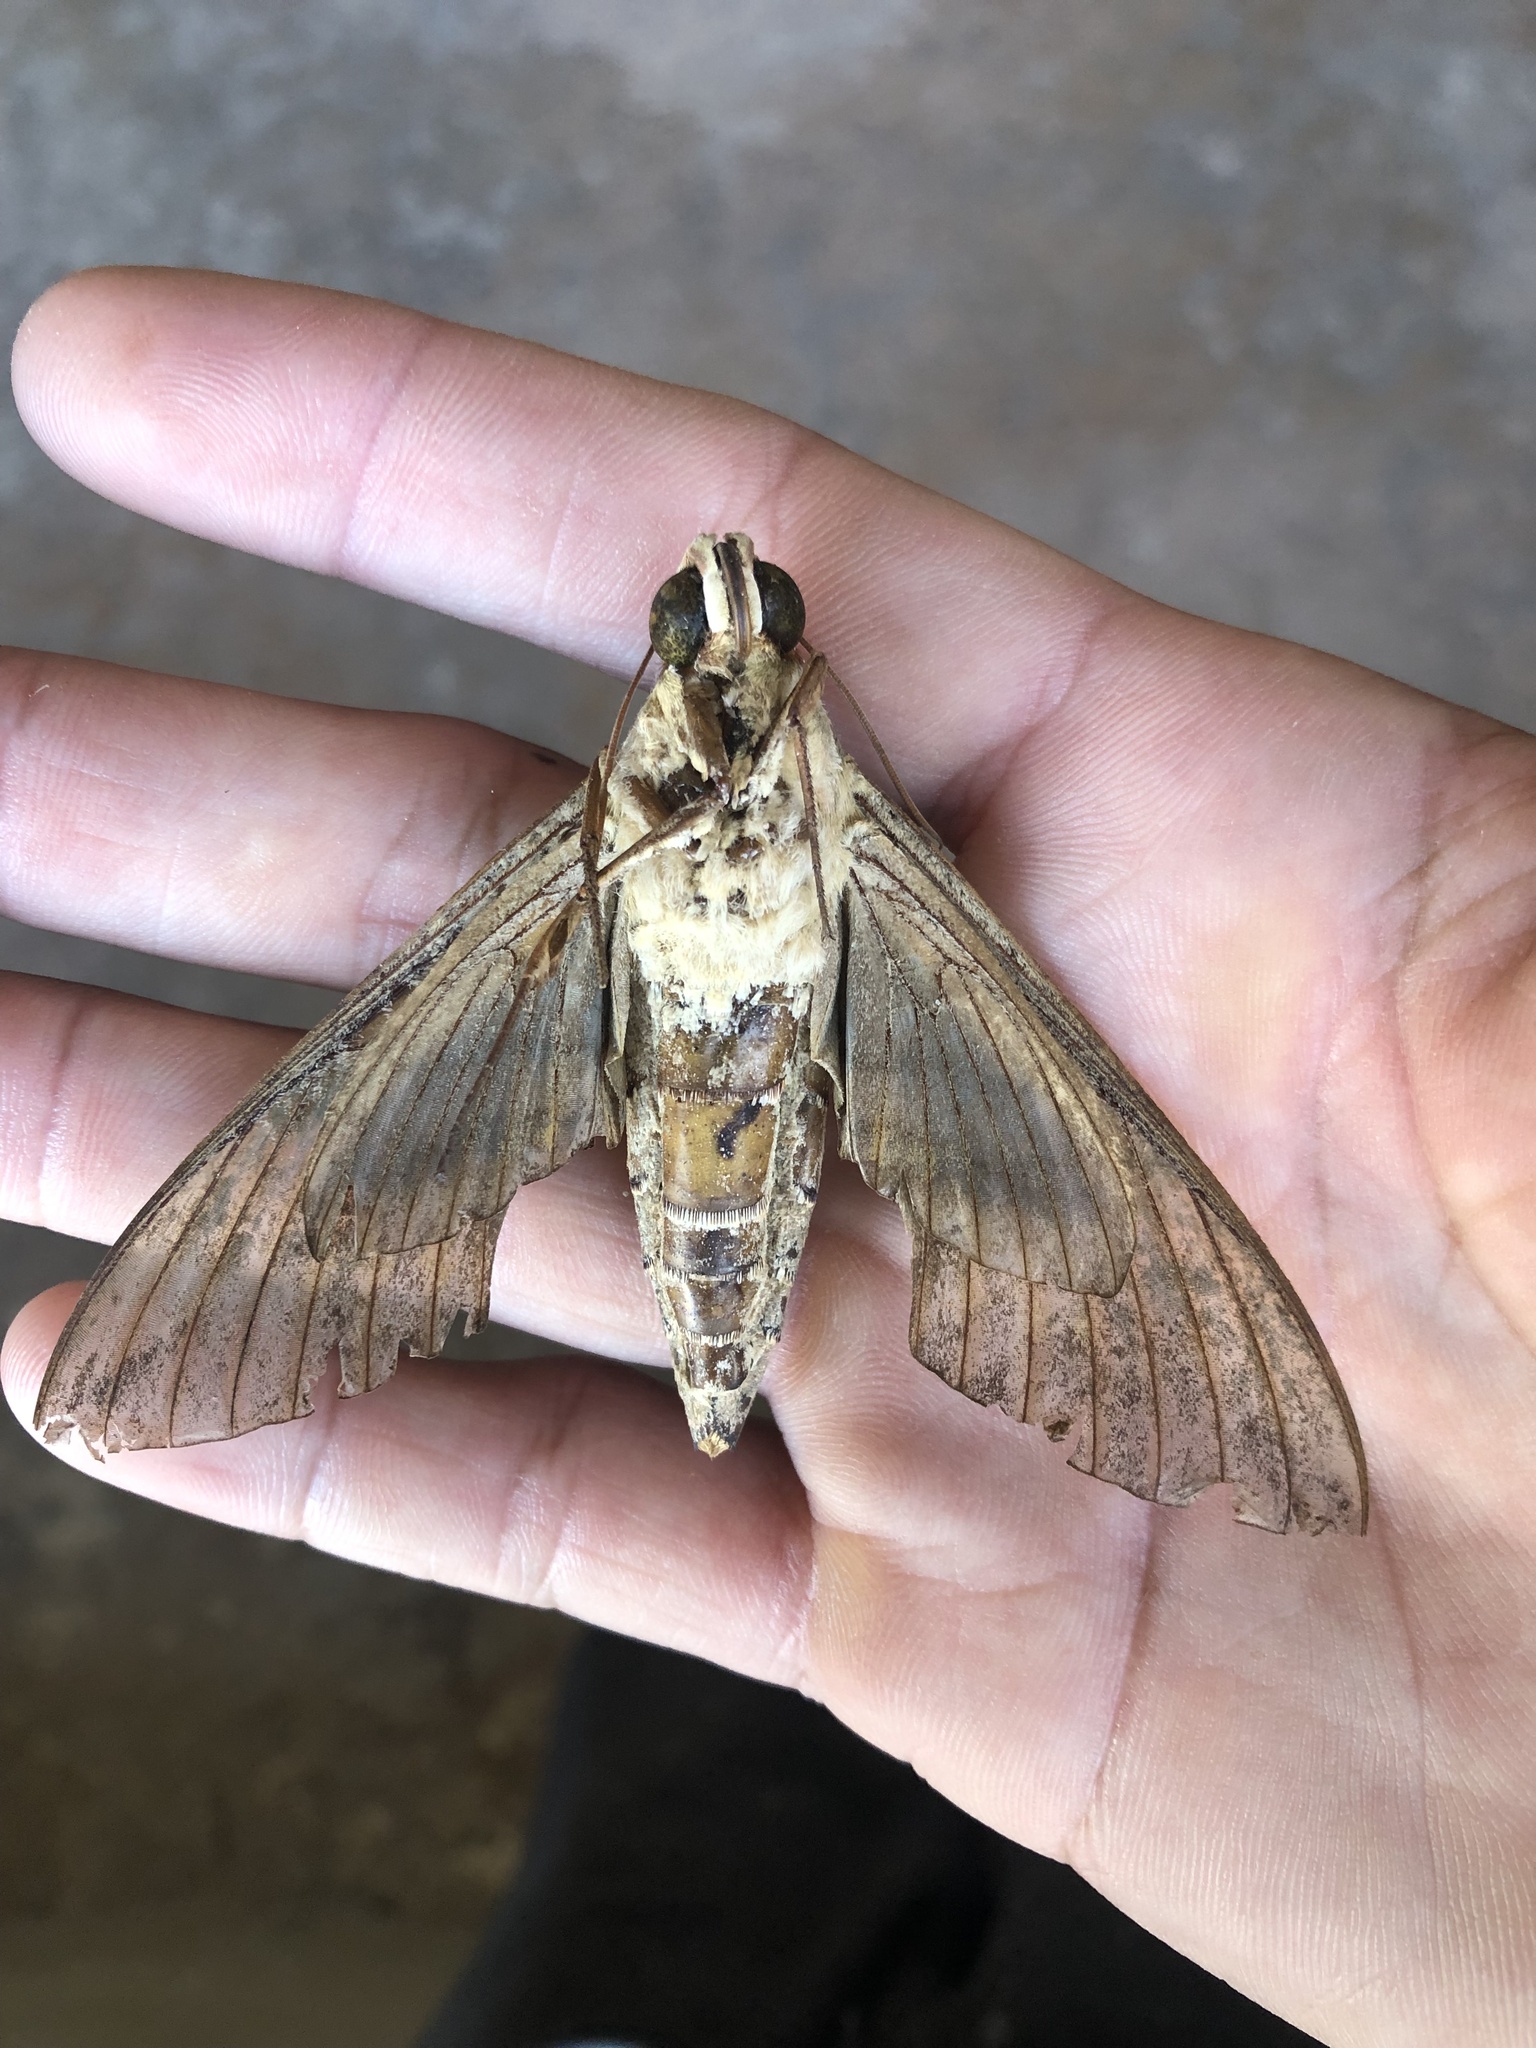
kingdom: Animalia
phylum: Arthropoda
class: Insecta
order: Lepidoptera
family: Sphingidae
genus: Eumorpha
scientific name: Eumorpha labruscae
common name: Gaudy sphinx
